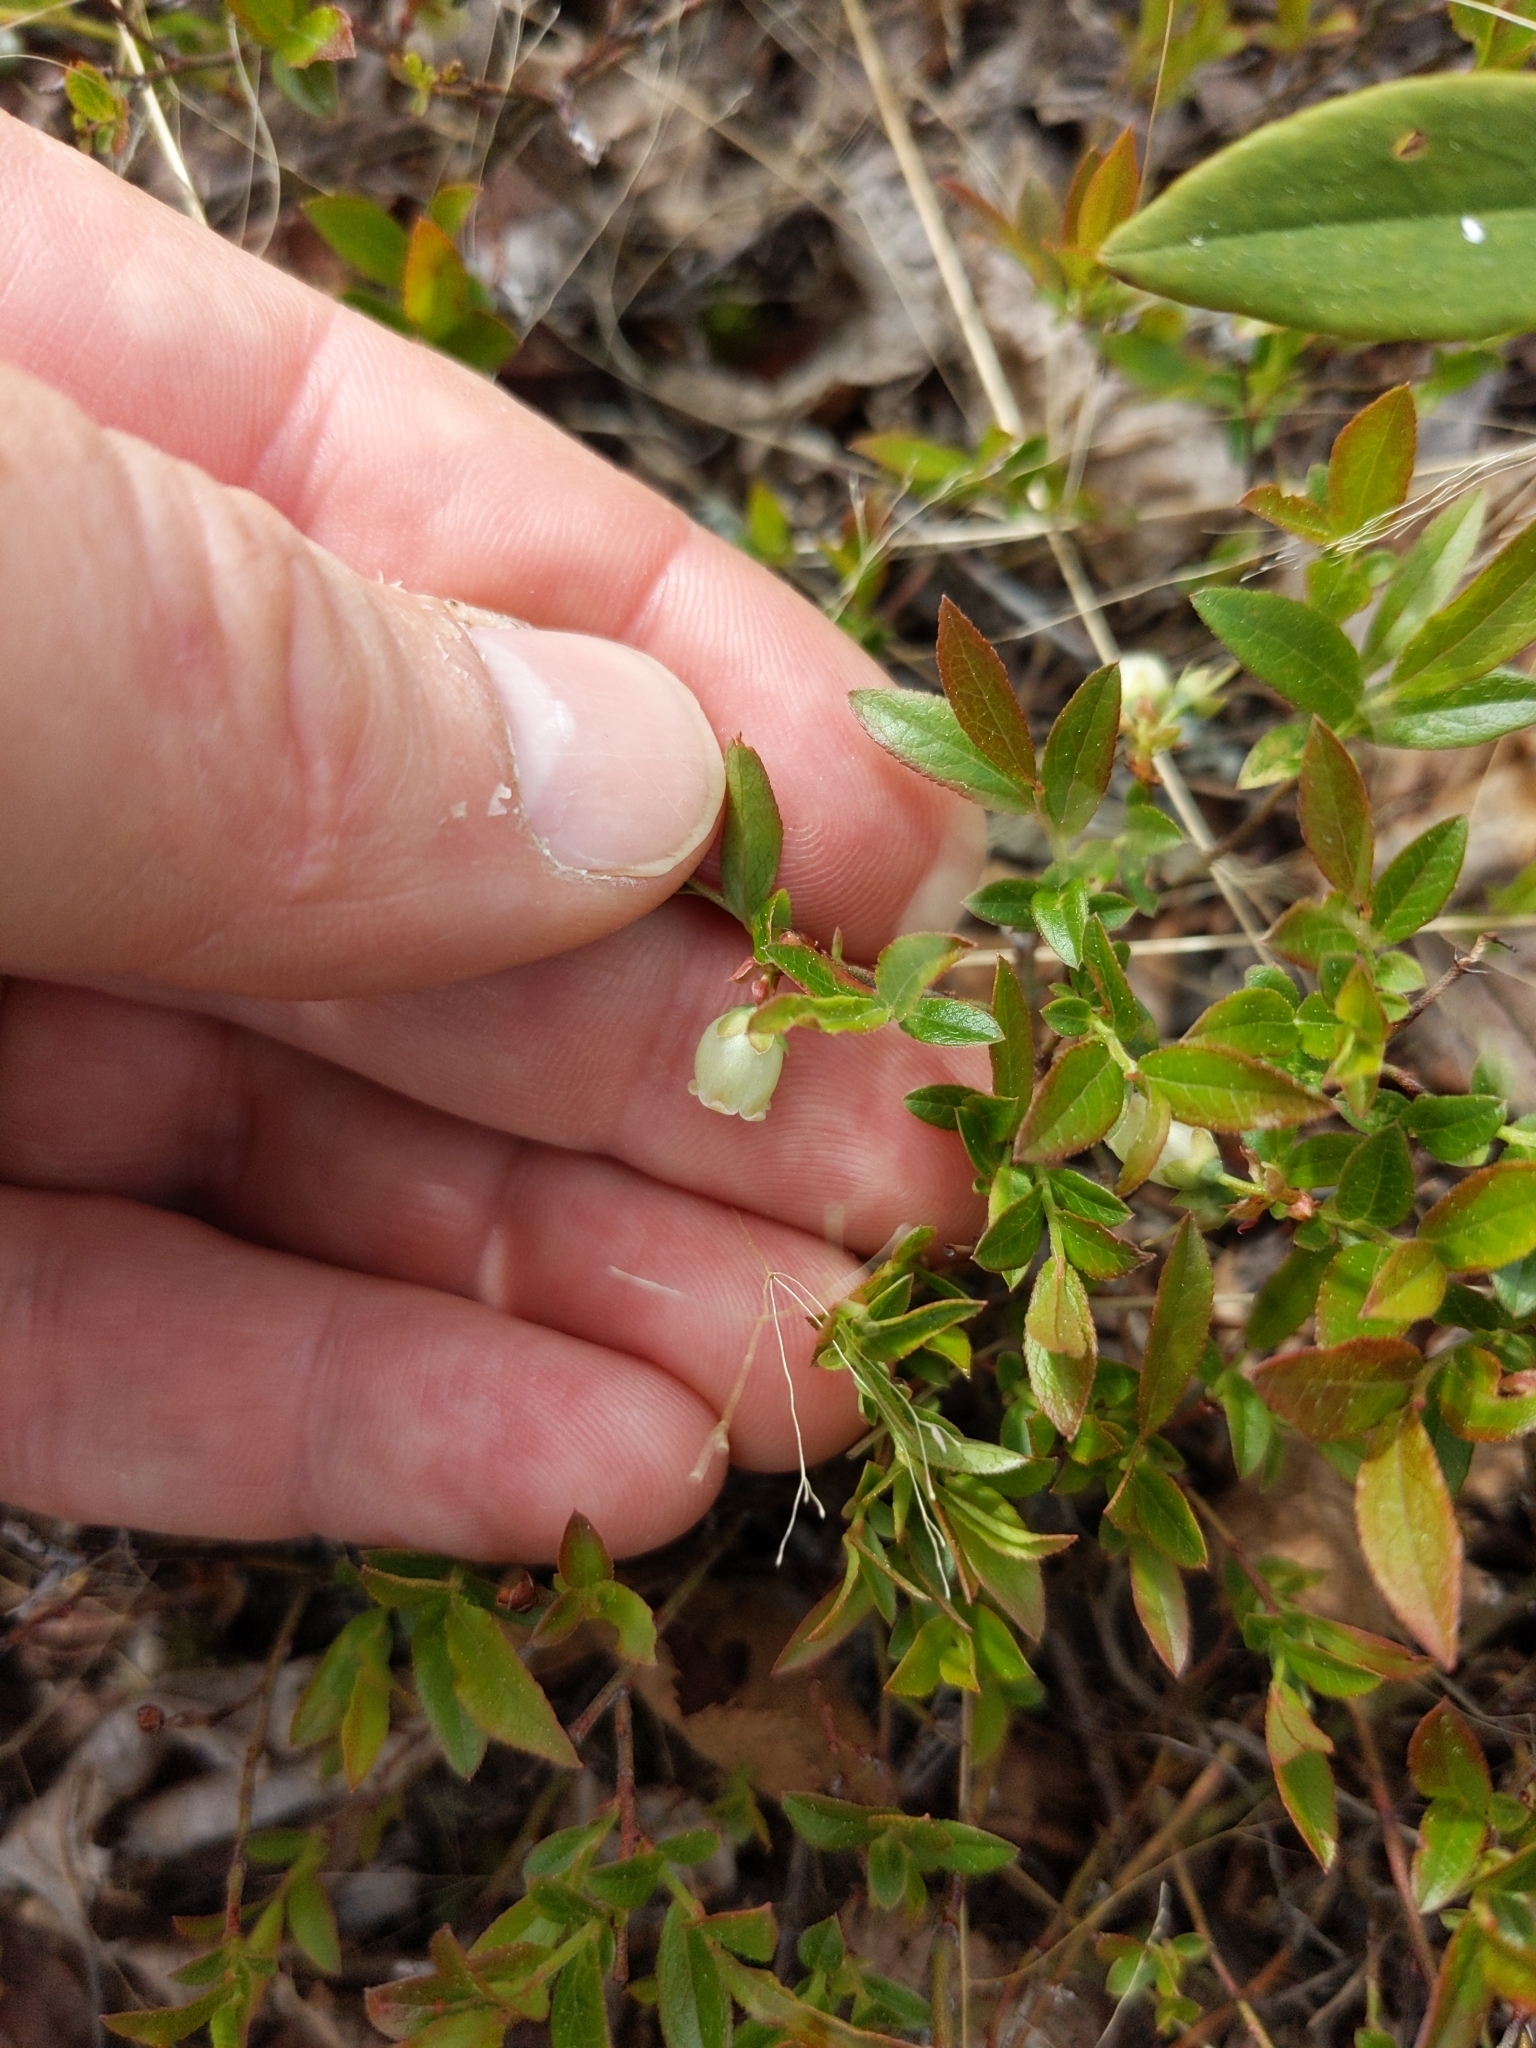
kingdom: Plantae
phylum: Tracheophyta
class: Magnoliopsida
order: Ericales
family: Ericaceae
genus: Vaccinium
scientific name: Vaccinium boreale
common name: Northern blueberry
